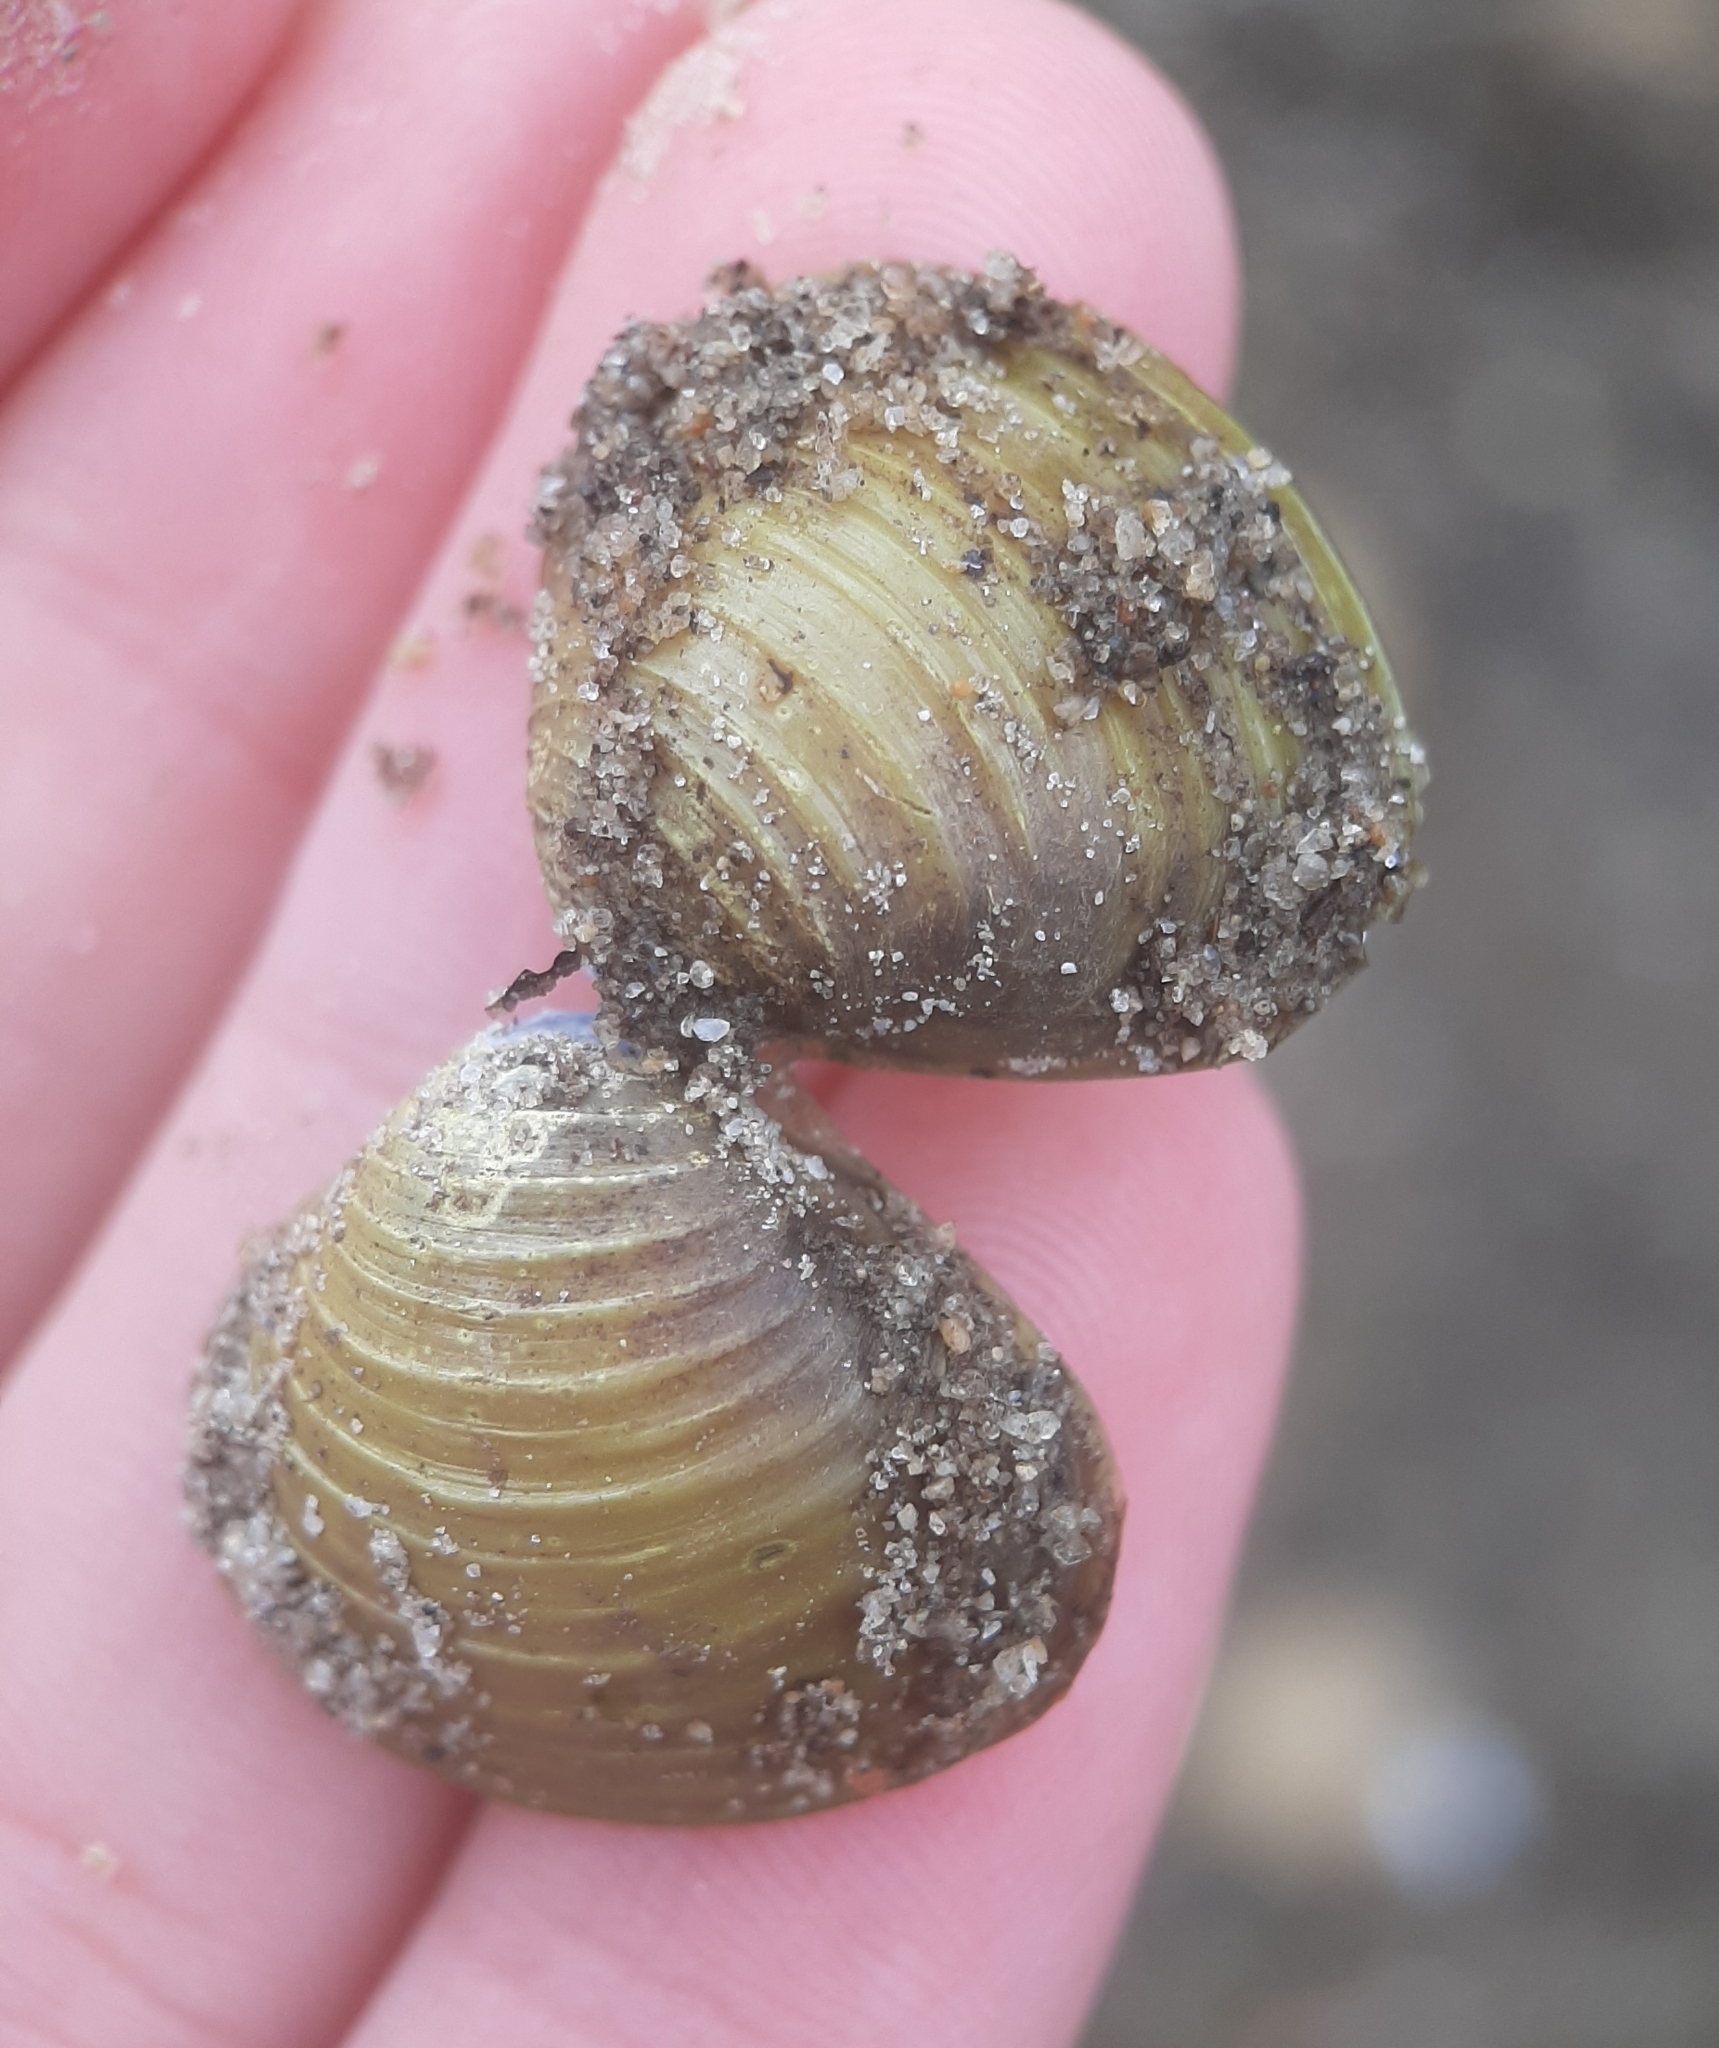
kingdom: Animalia
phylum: Mollusca
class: Bivalvia
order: Venerida
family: Cyrenidae
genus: Corbicula
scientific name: Corbicula fluminea
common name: Asian clam
